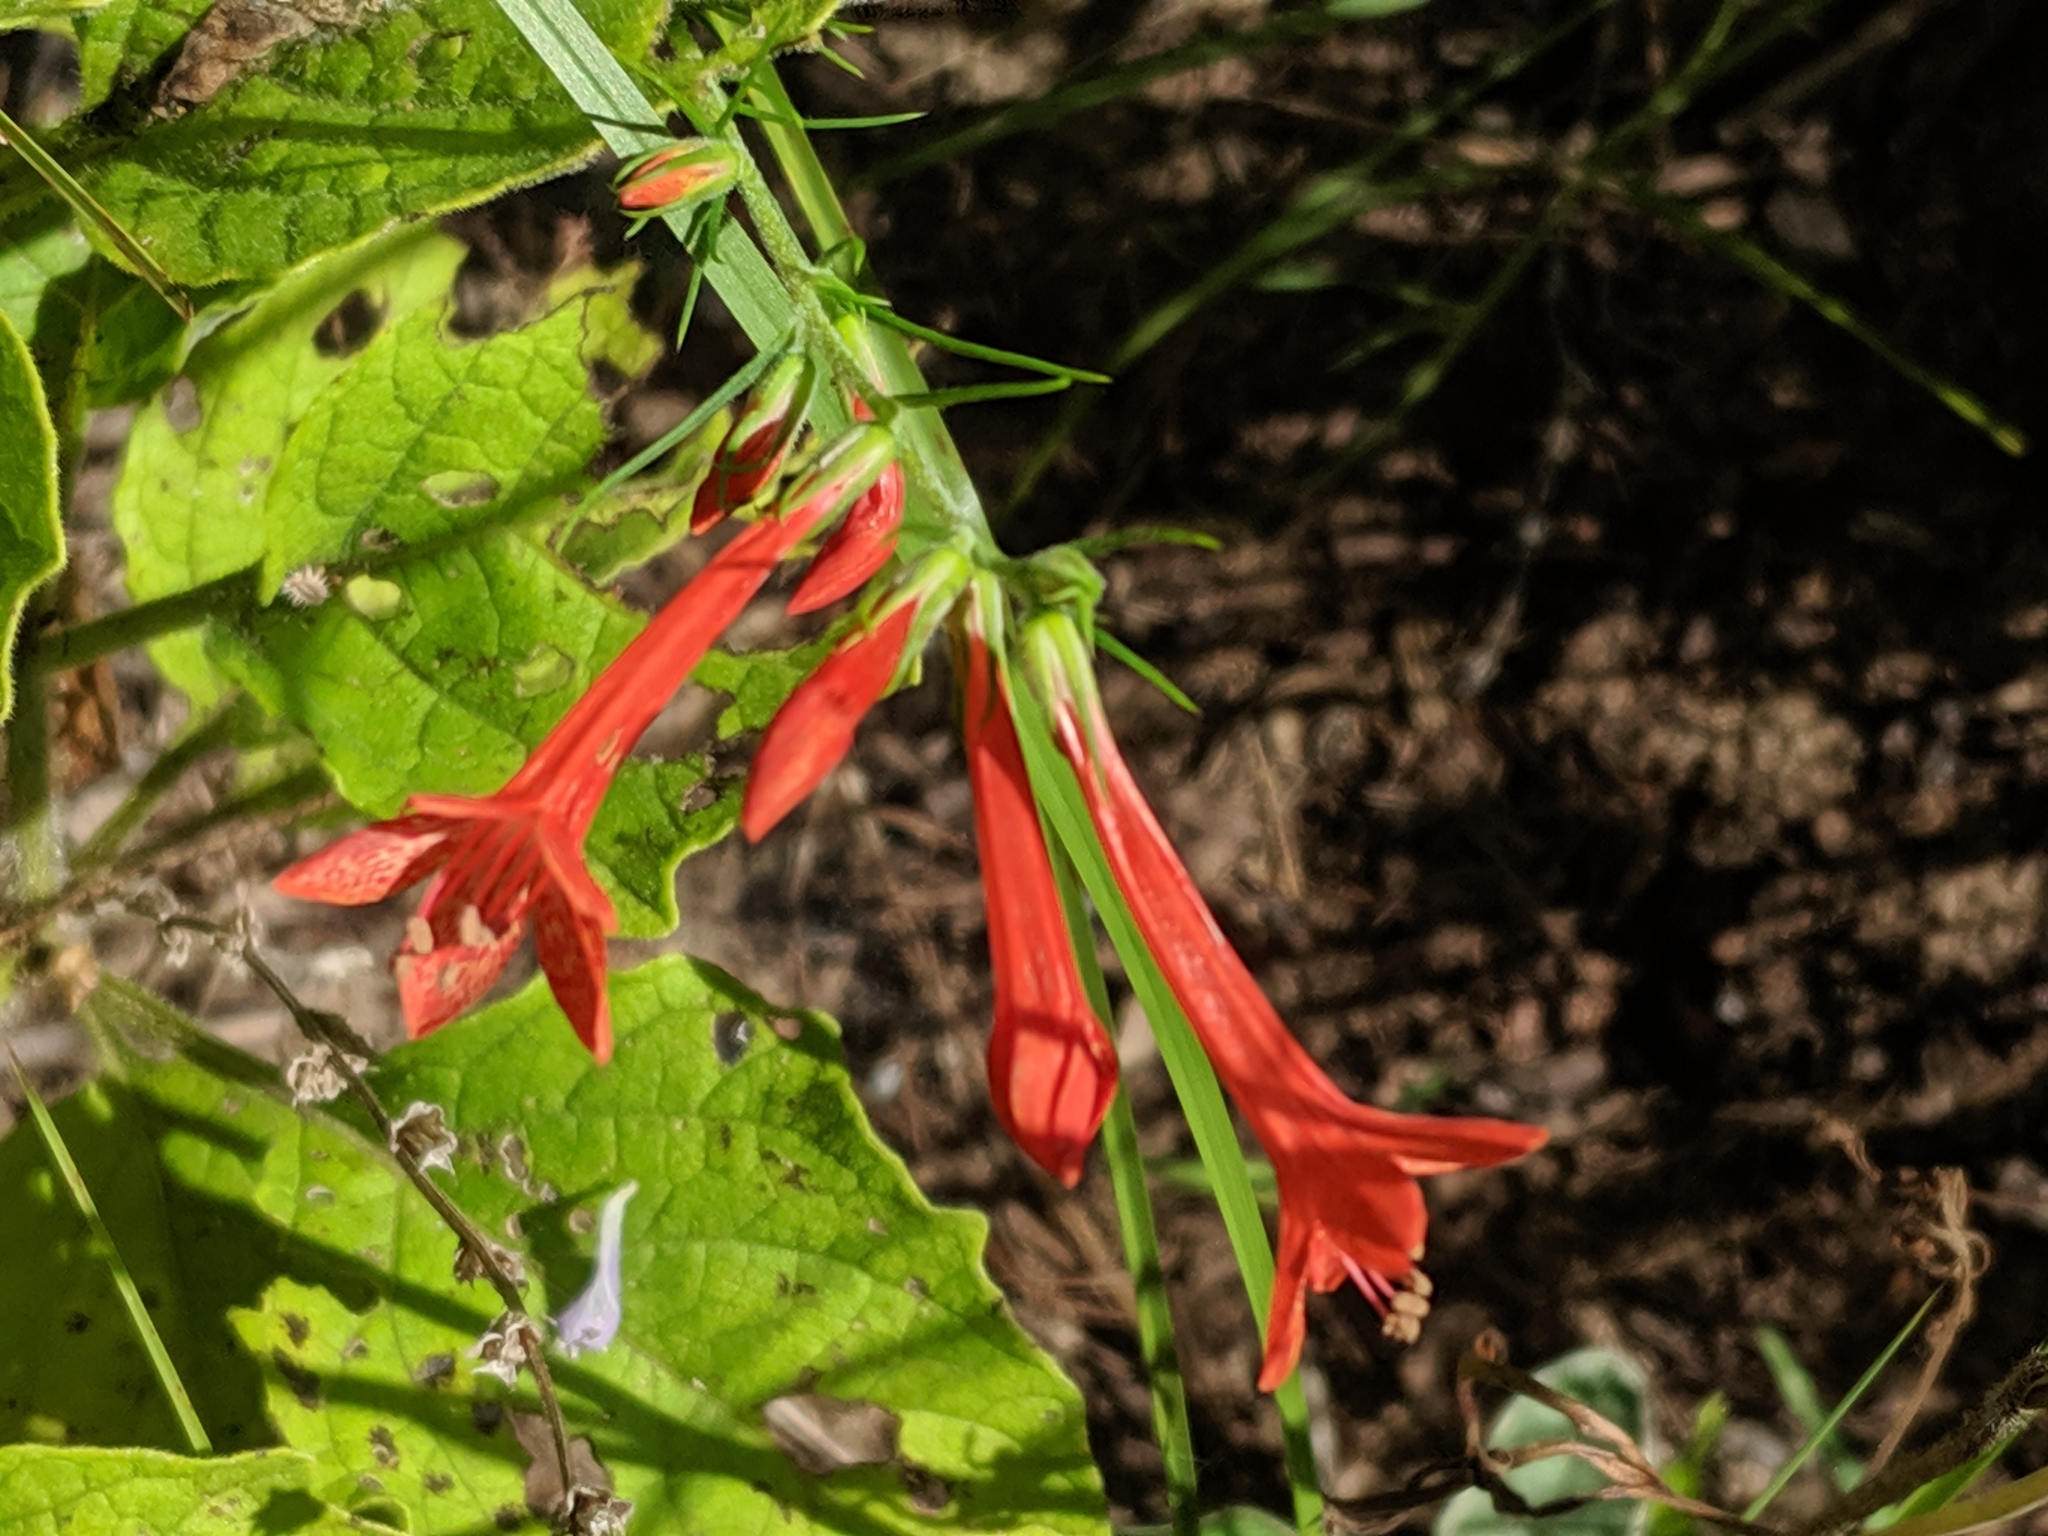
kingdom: Plantae
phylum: Tracheophyta
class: Magnoliopsida
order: Ericales
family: Polemoniaceae
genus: Ipomopsis
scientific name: Ipomopsis rubra
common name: Skyrocket
